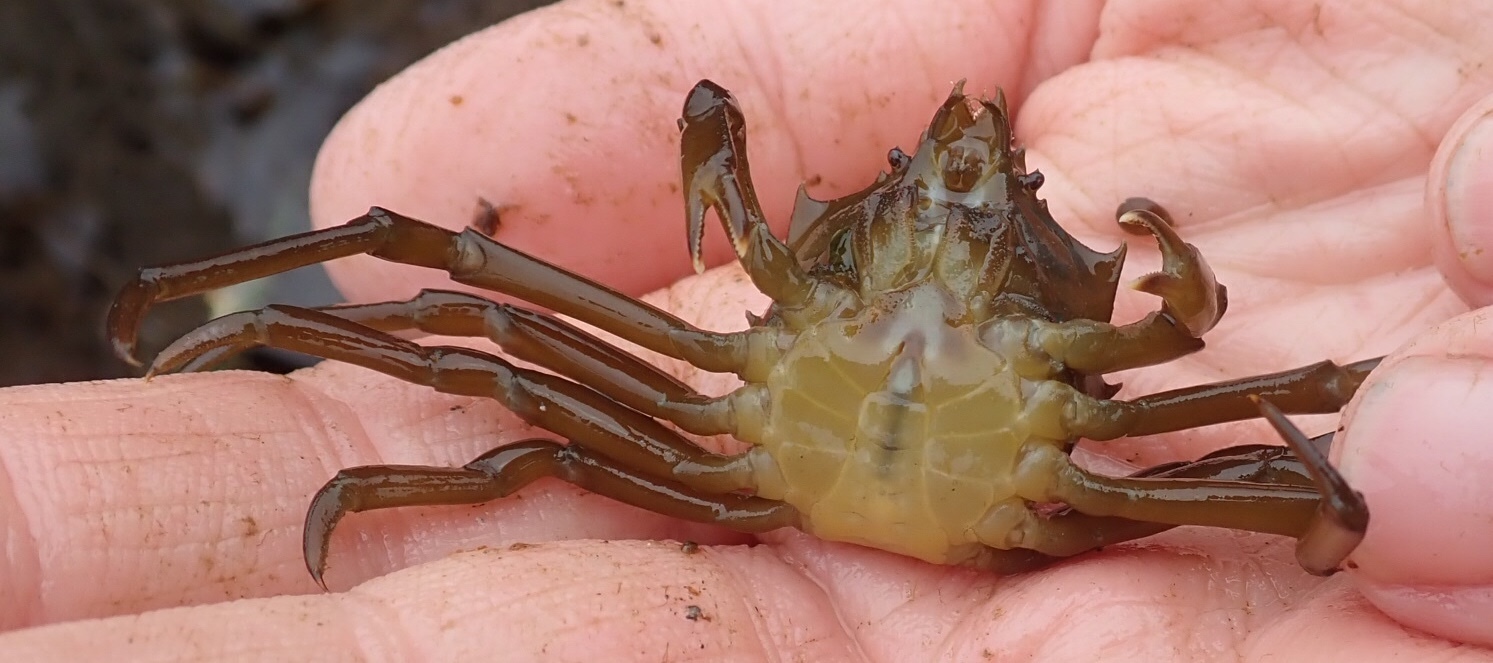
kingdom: Animalia
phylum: Arthropoda
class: Malacostraca
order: Decapoda
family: Epialtidae
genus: Pugettia
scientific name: Pugettia producta
